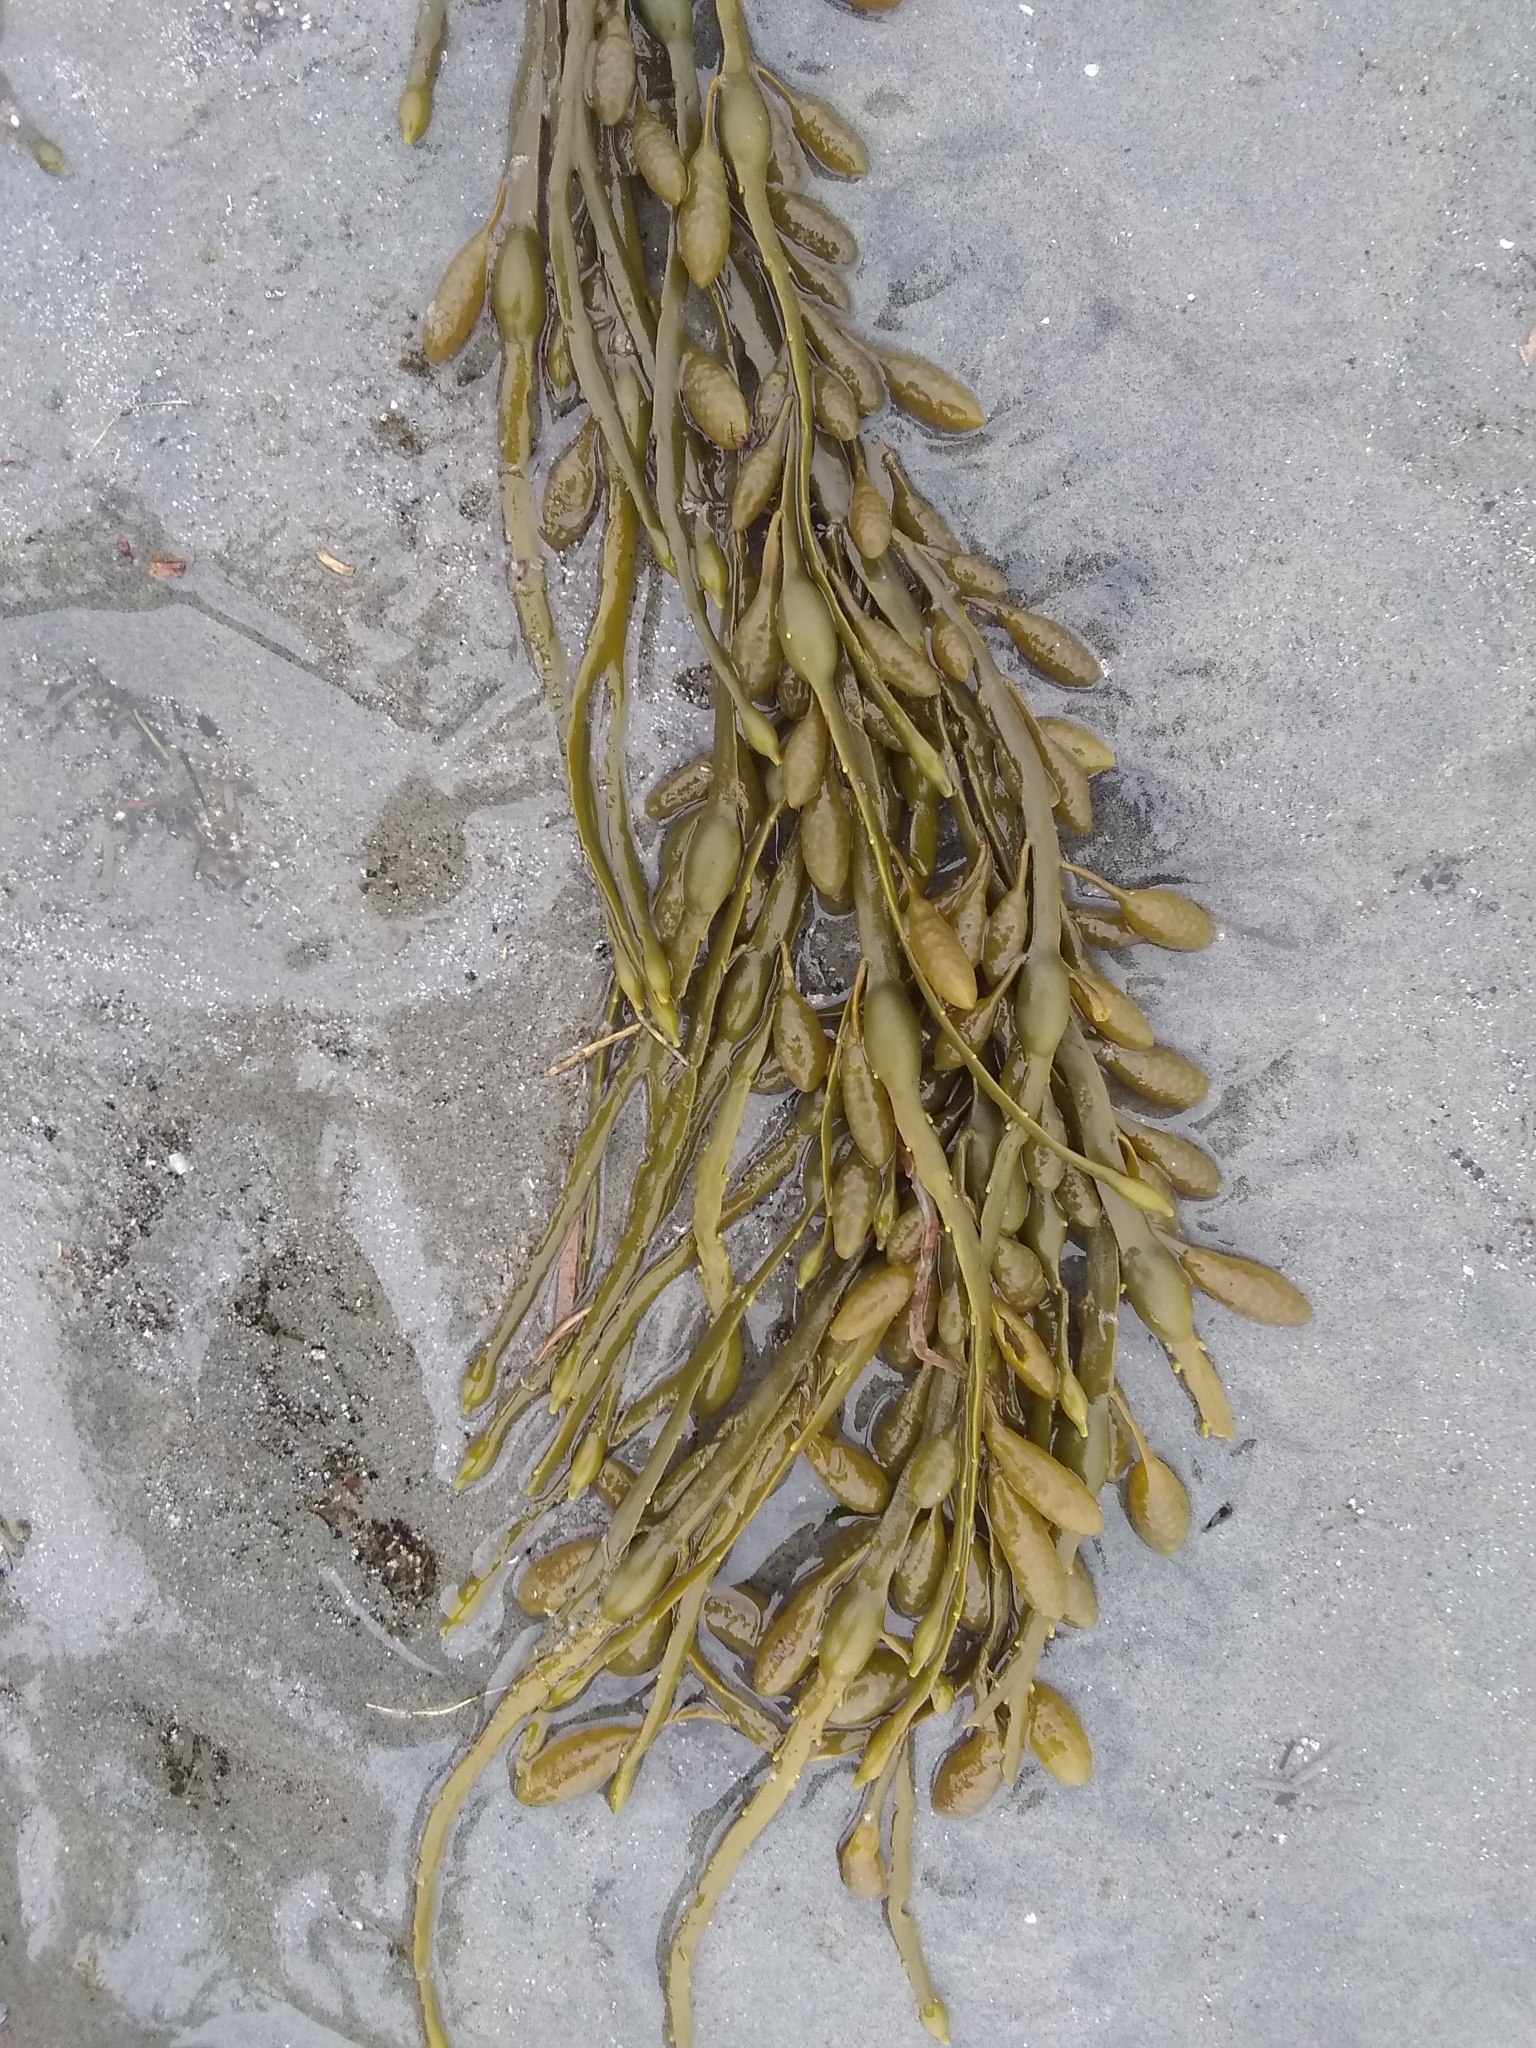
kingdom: Chromista
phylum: Ochrophyta
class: Phaeophyceae
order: Fucales
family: Fucaceae
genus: Ascophyllum
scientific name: Ascophyllum nodosum
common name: Knotted wrack
